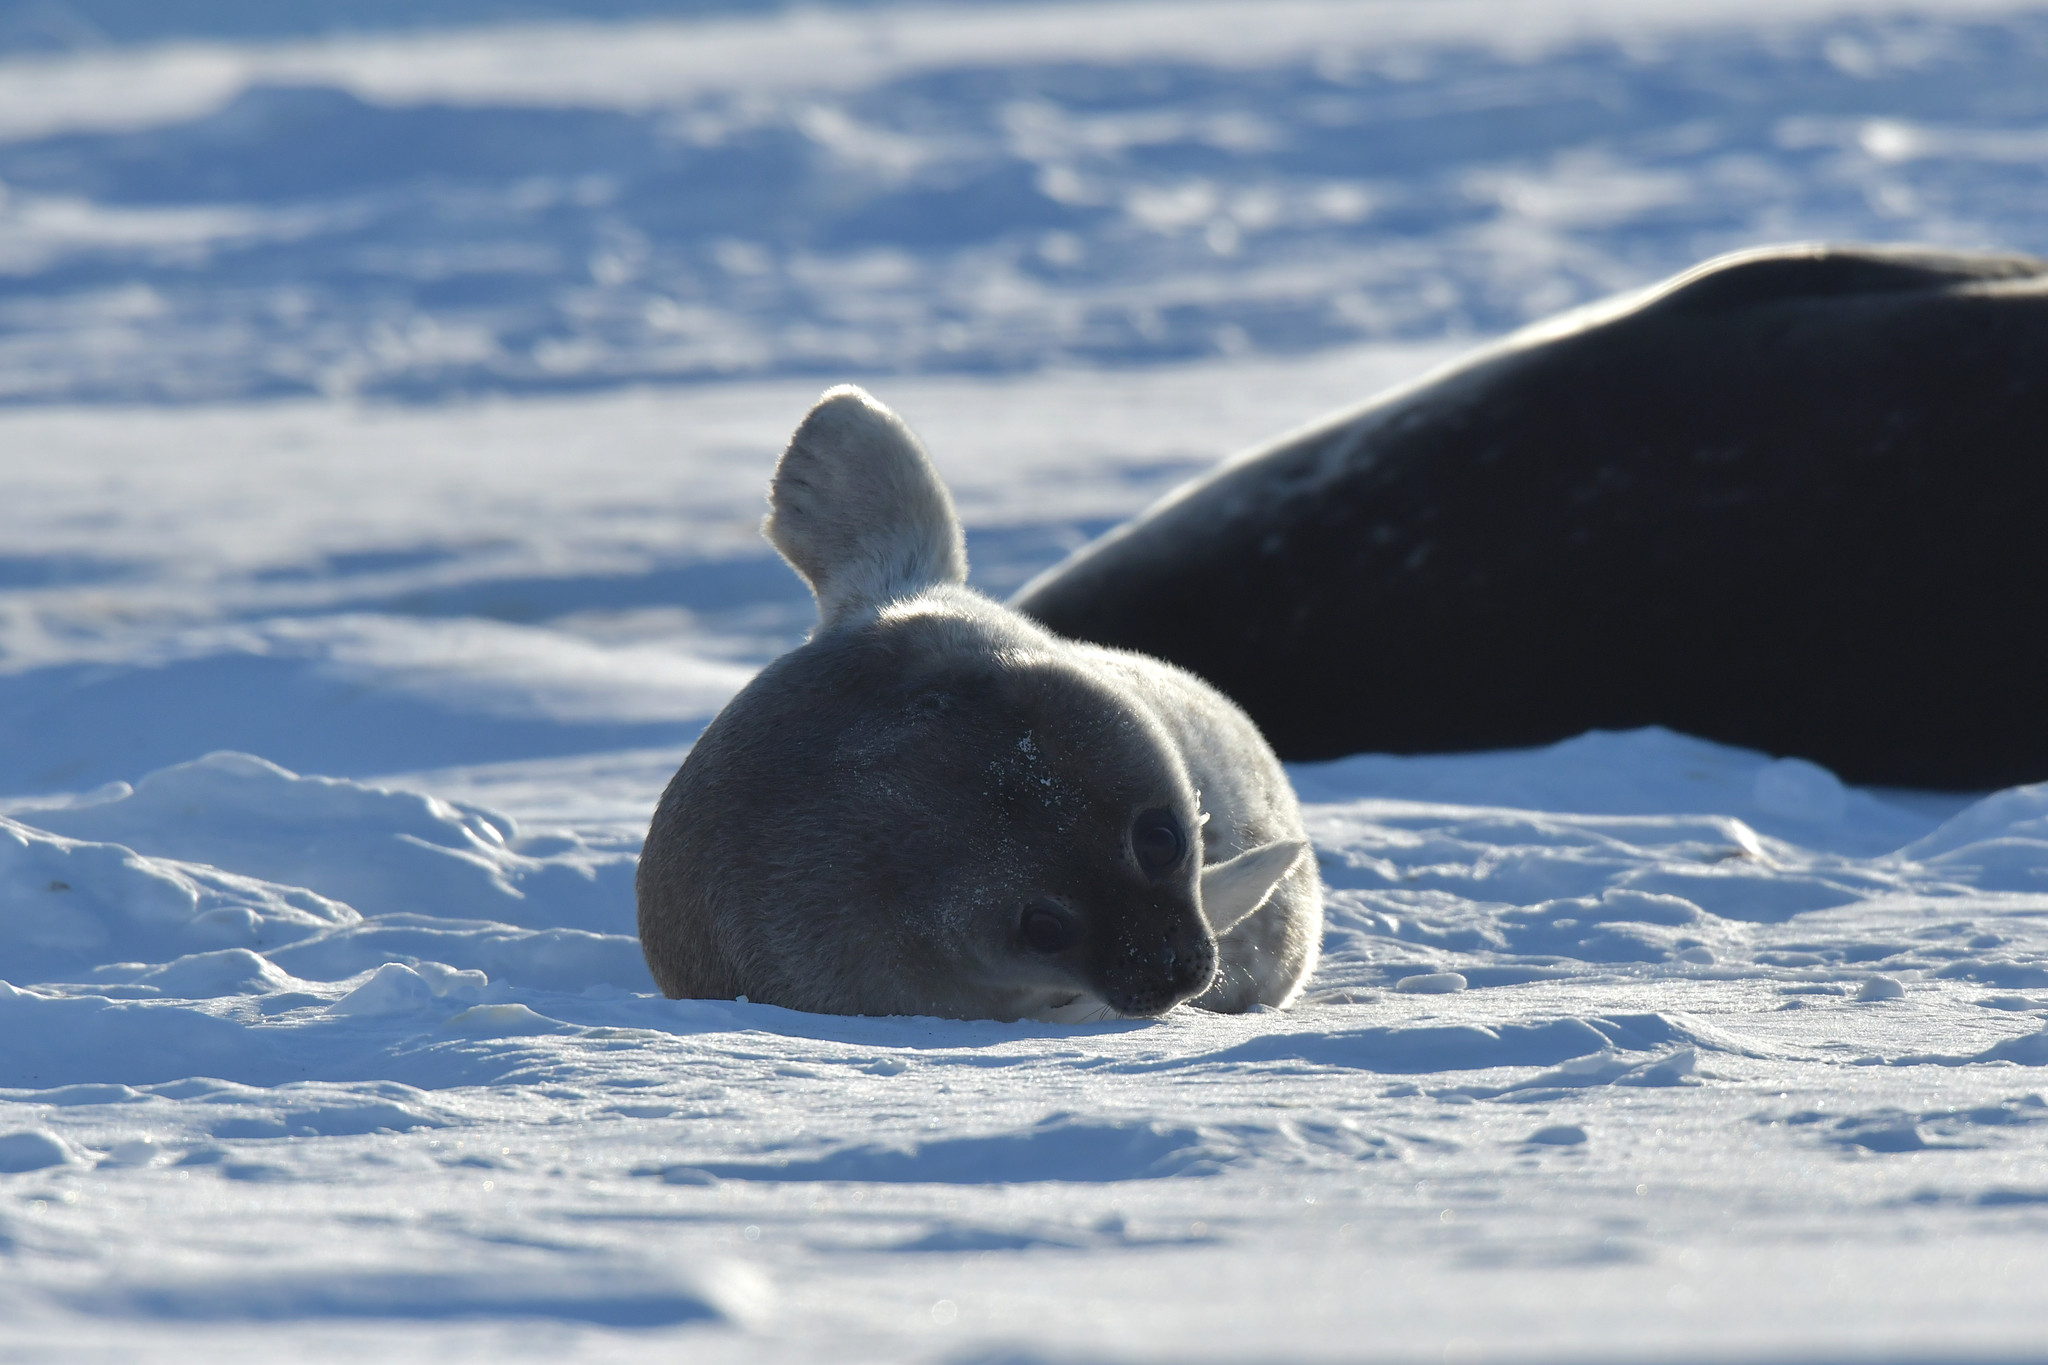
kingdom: Animalia
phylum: Chordata
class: Mammalia
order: Carnivora
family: Phocidae
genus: Leptonychotes
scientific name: Leptonychotes weddellii
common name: Weddell seal
